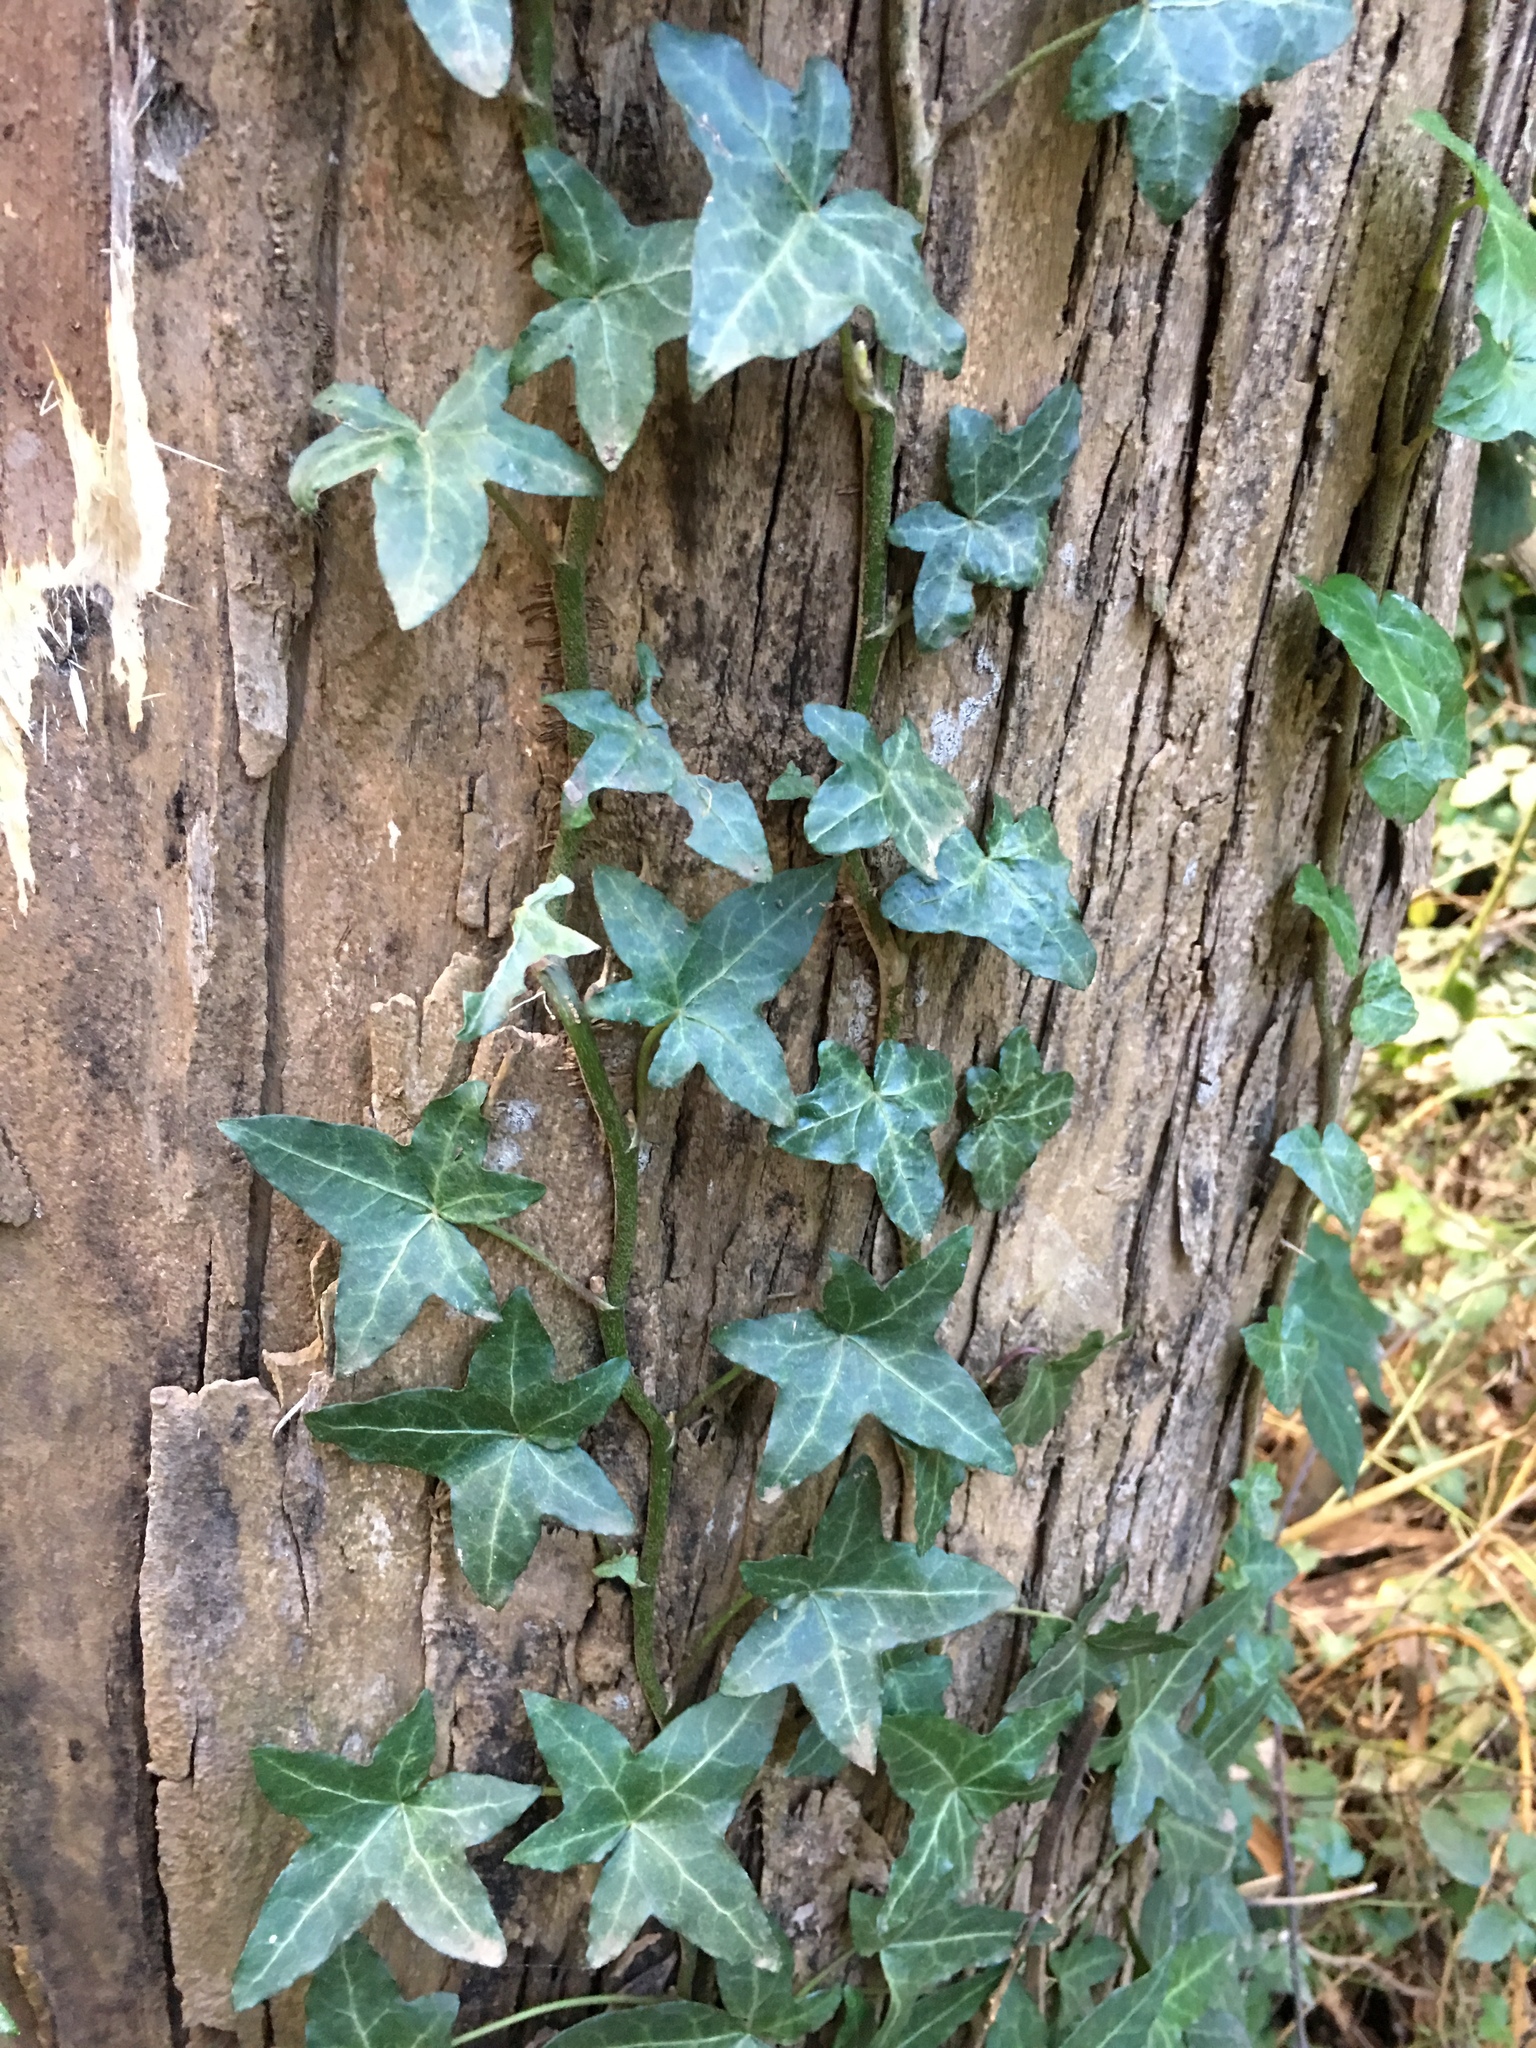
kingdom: Plantae
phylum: Tracheophyta
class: Magnoliopsida
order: Apiales
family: Araliaceae
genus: Hedera
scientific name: Hedera helix
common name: Ivy
